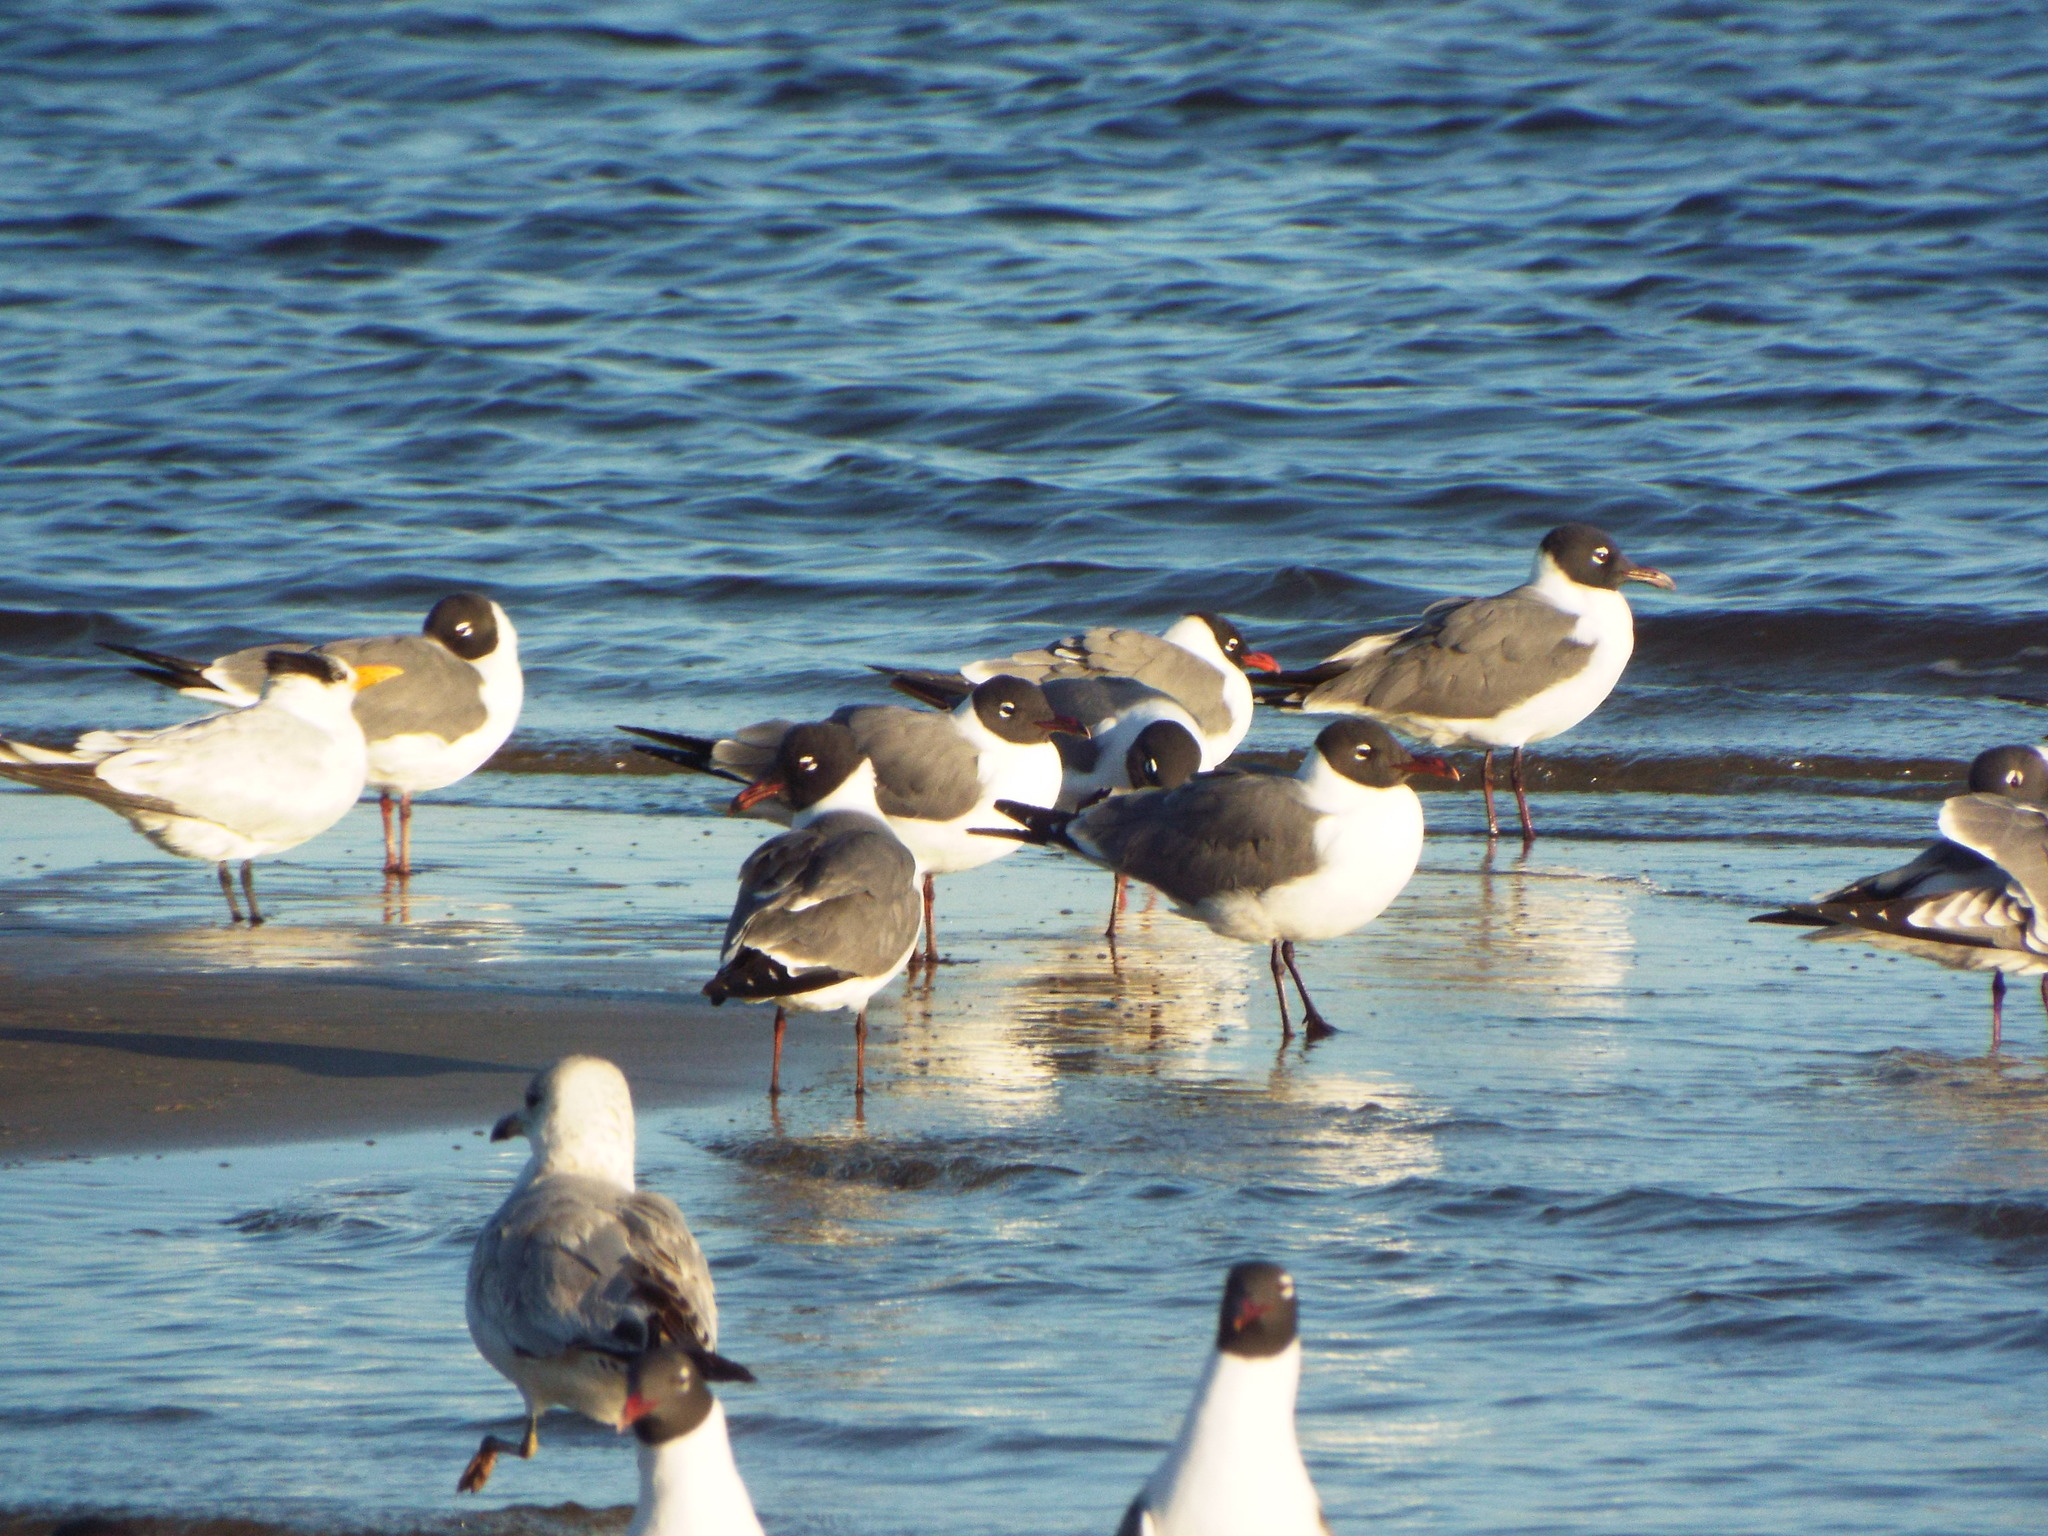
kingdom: Animalia
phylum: Chordata
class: Aves
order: Charadriiformes
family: Laridae
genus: Leucophaeus
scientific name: Leucophaeus atricilla
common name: Laughing gull
